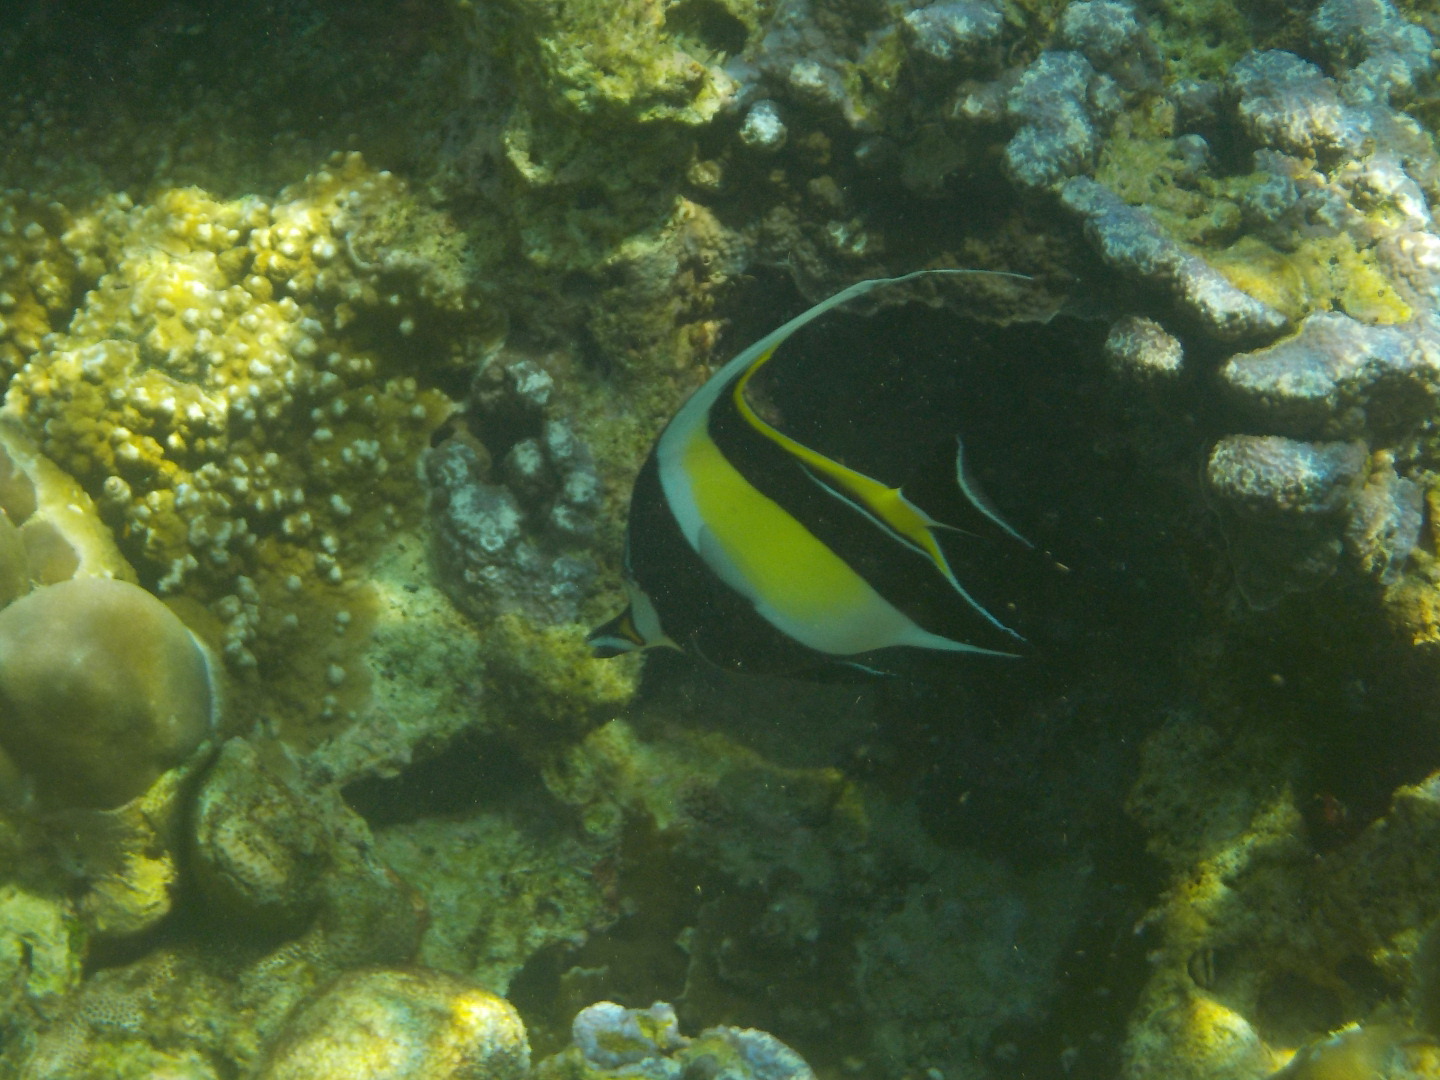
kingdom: Animalia
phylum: Chordata
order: Perciformes
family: Zanclidae
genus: Zanclus
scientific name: Zanclus cornutus
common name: Moorish idol
